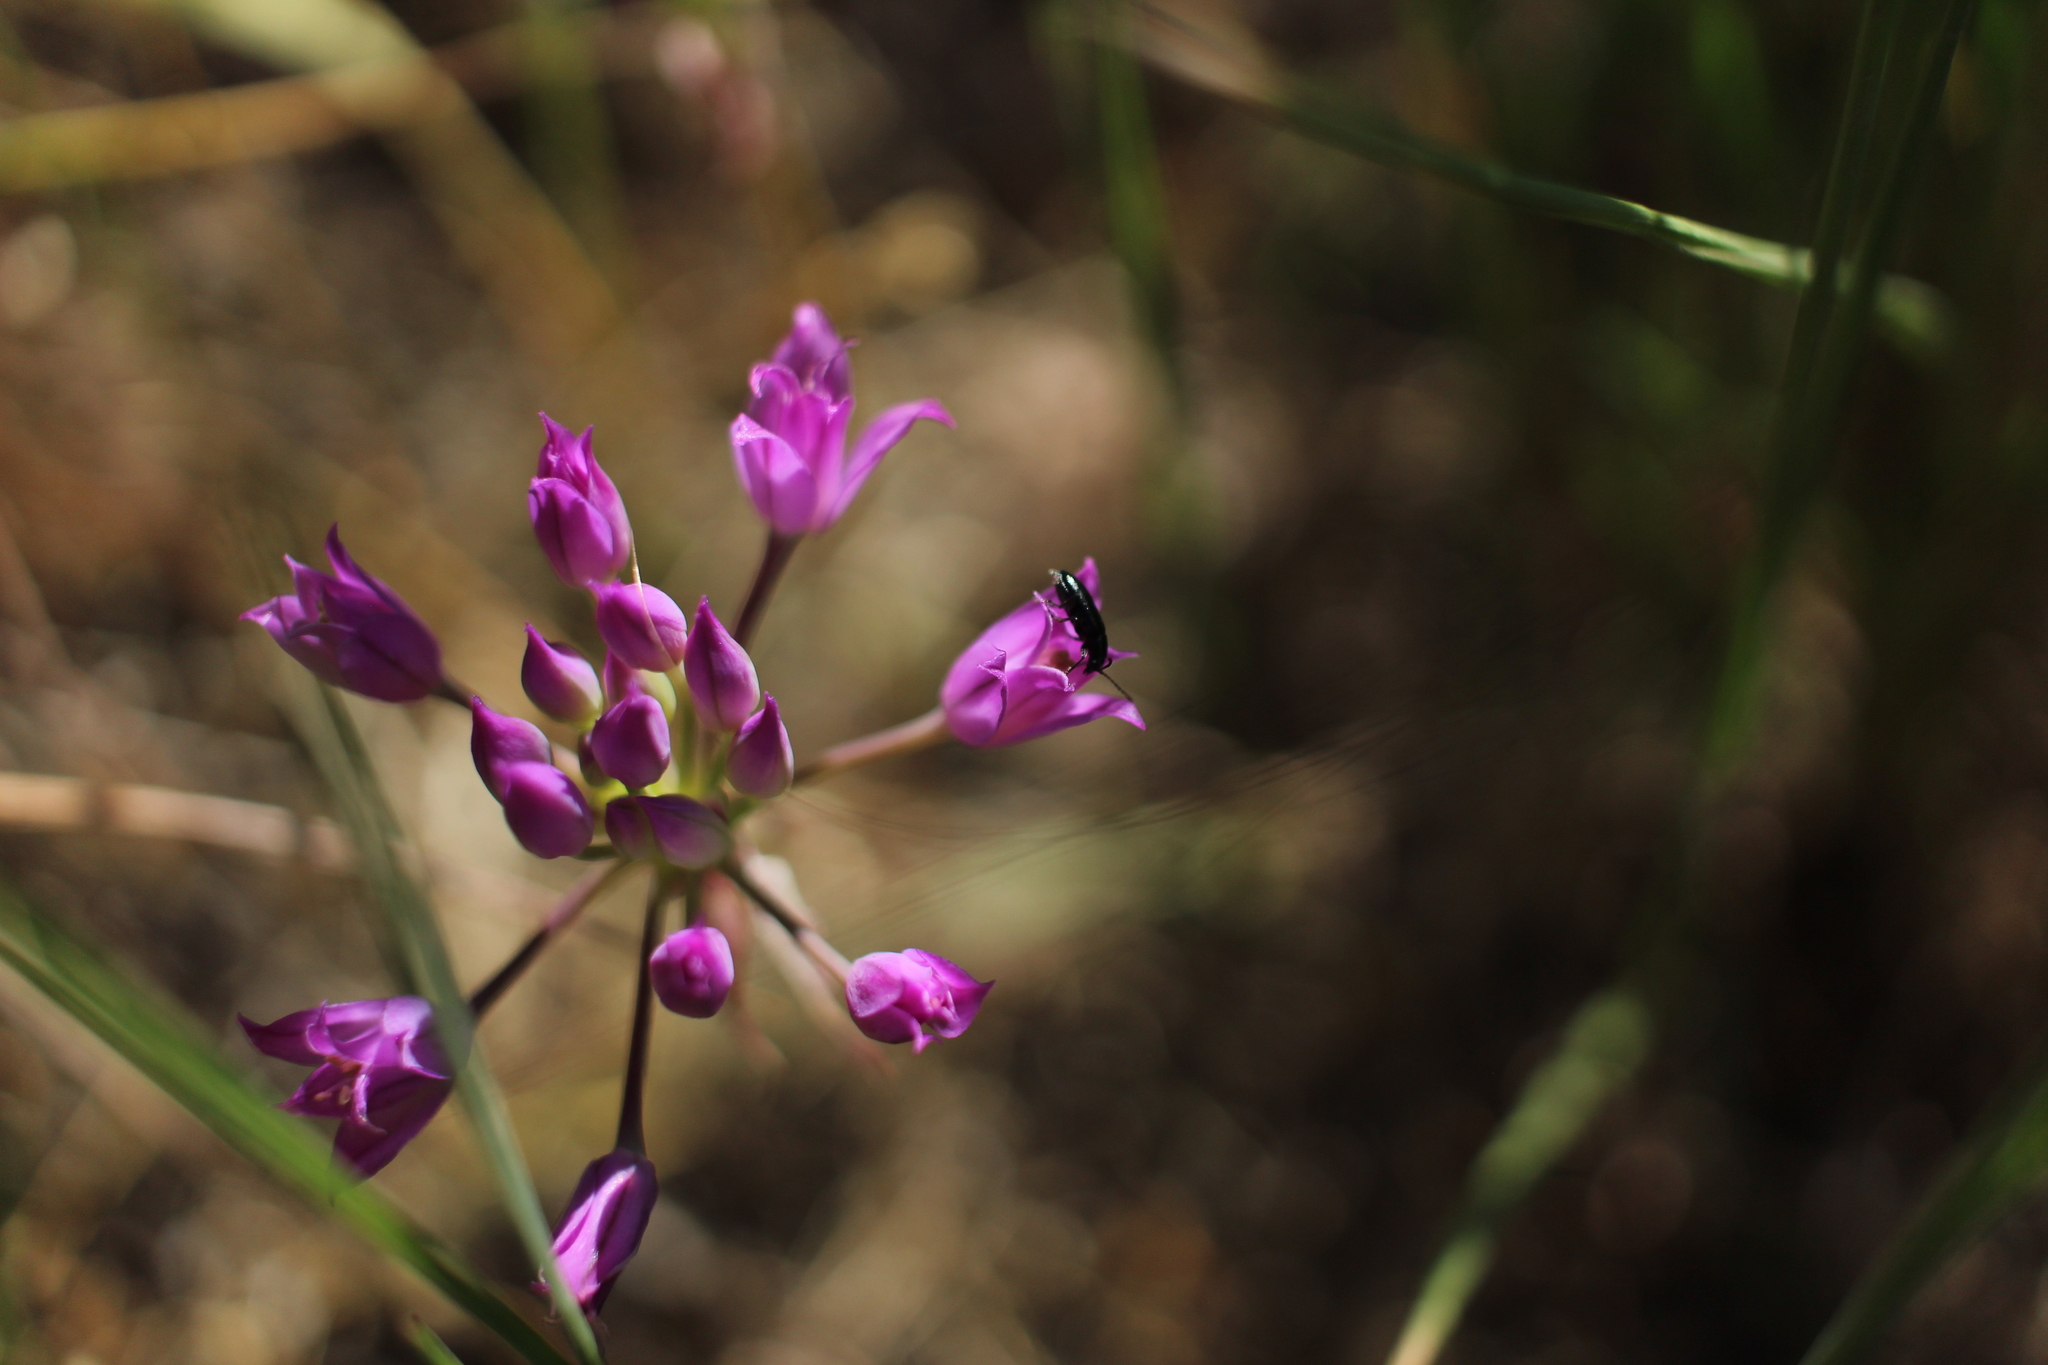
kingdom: Plantae
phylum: Tracheophyta
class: Liliopsida
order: Asparagales
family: Amaryllidaceae
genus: Allium
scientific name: Allium acuminatum
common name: Hooker's onion
